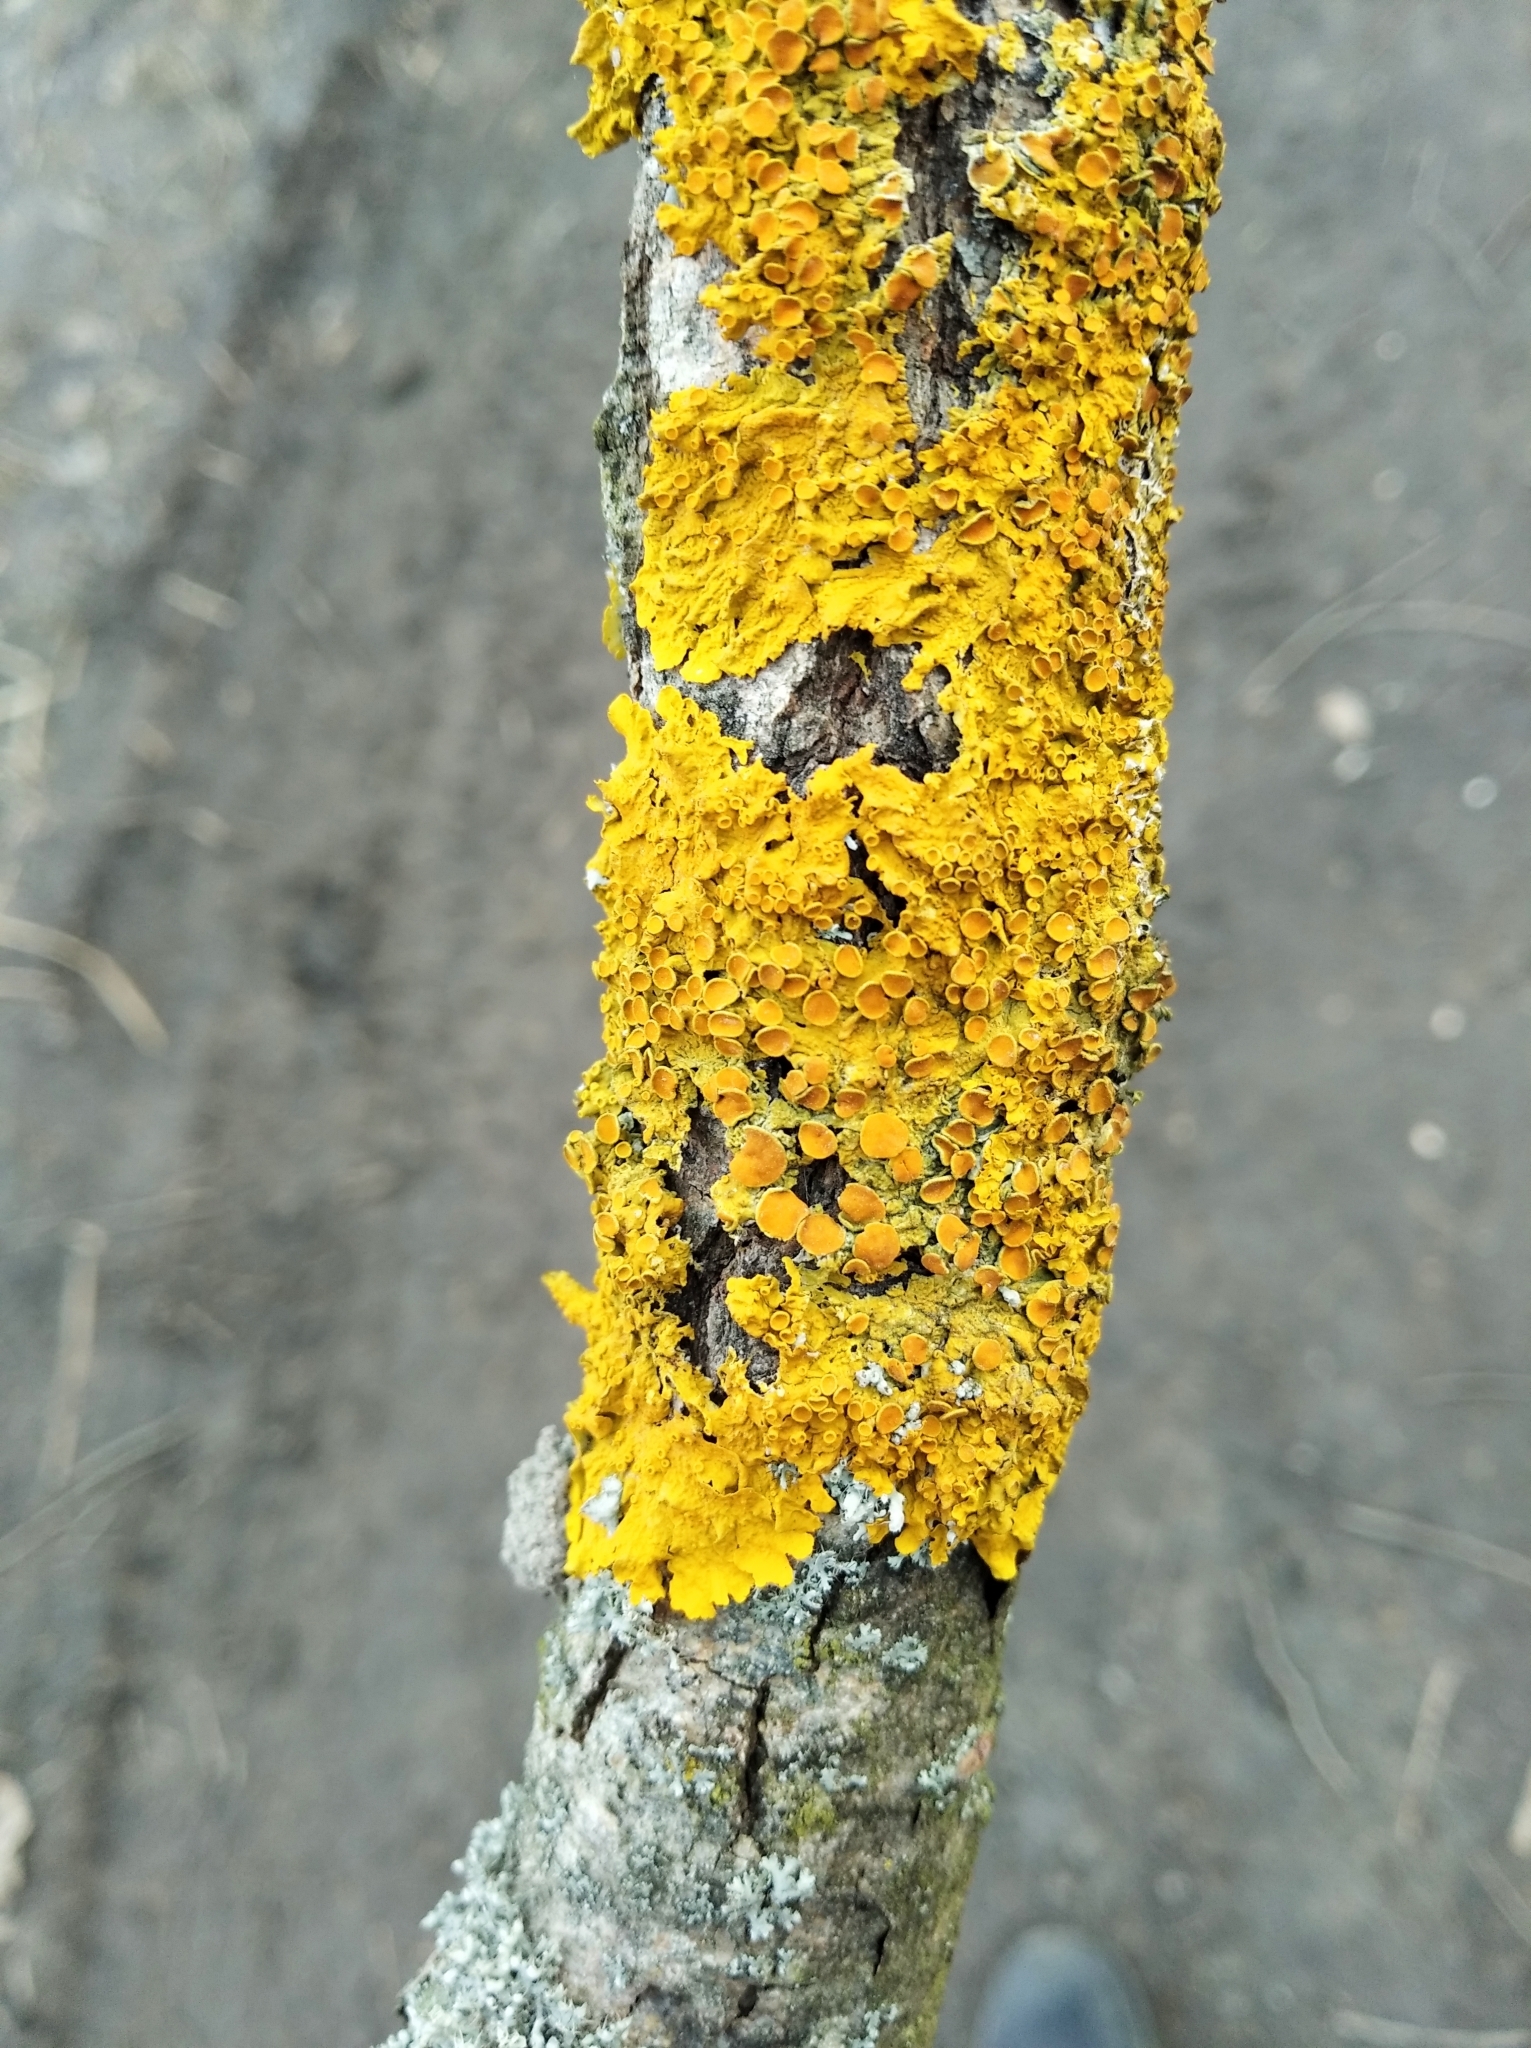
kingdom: Fungi
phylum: Ascomycota
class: Lecanoromycetes
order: Teloschistales
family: Teloschistaceae
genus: Xanthoria
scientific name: Xanthoria parietina
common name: Common orange lichen
